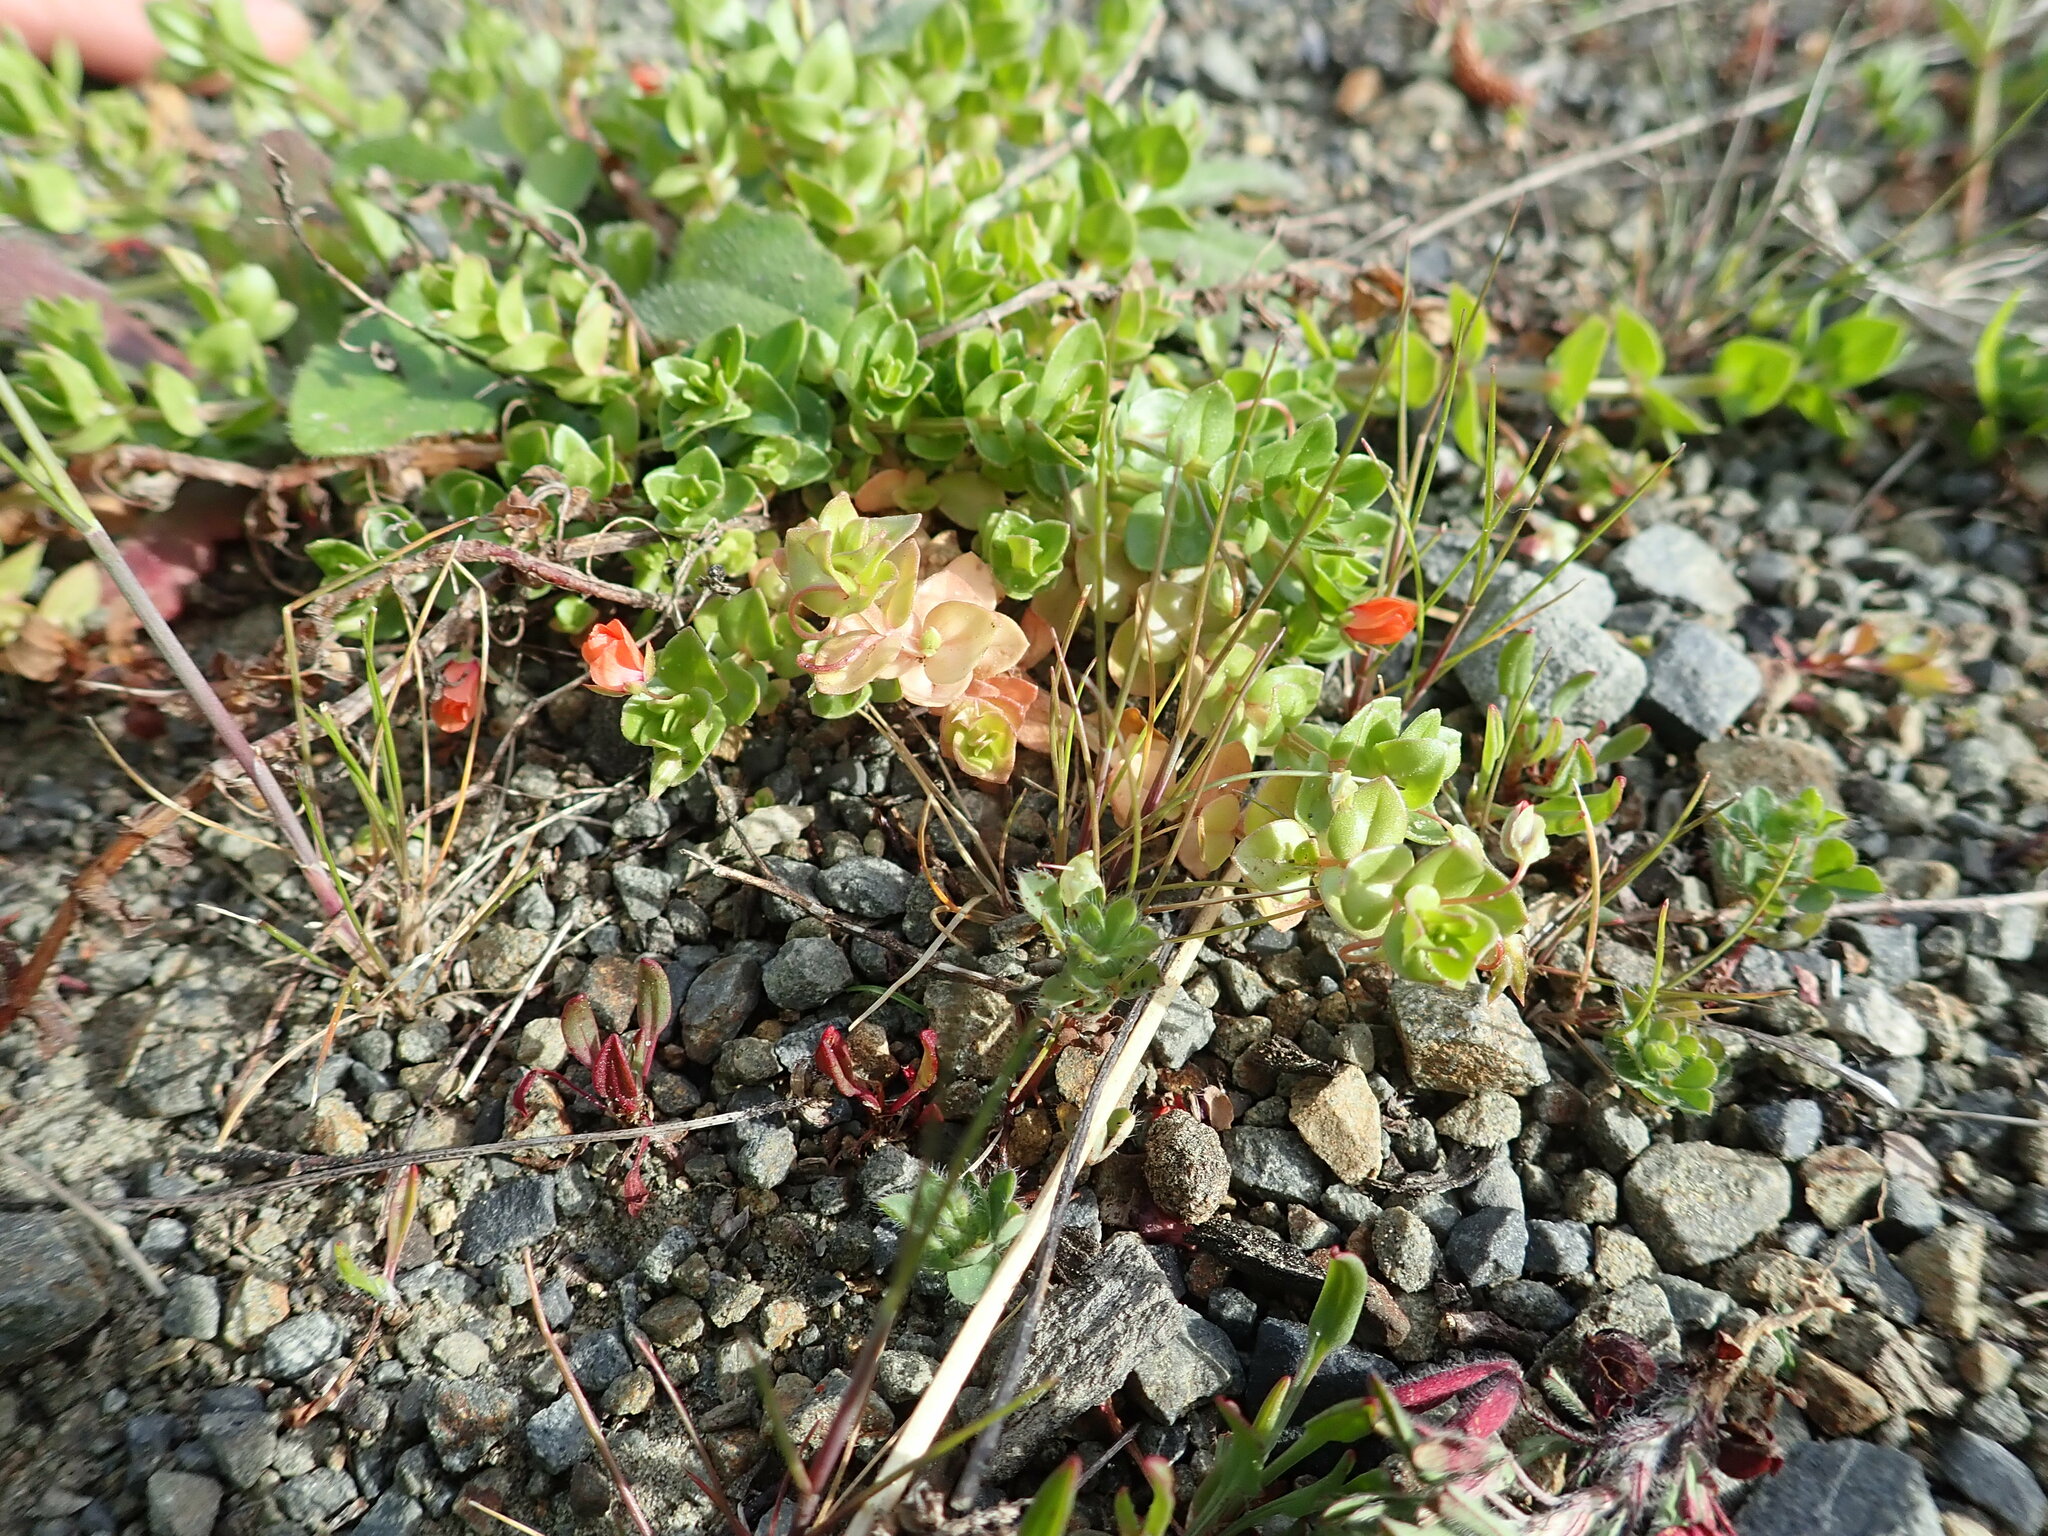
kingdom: Plantae
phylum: Tracheophyta
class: Magnoliopsida
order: Ericales
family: Primulaceae
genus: Lysimachia
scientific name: Lysimachia arvensis
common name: Scarlet pimpernel
